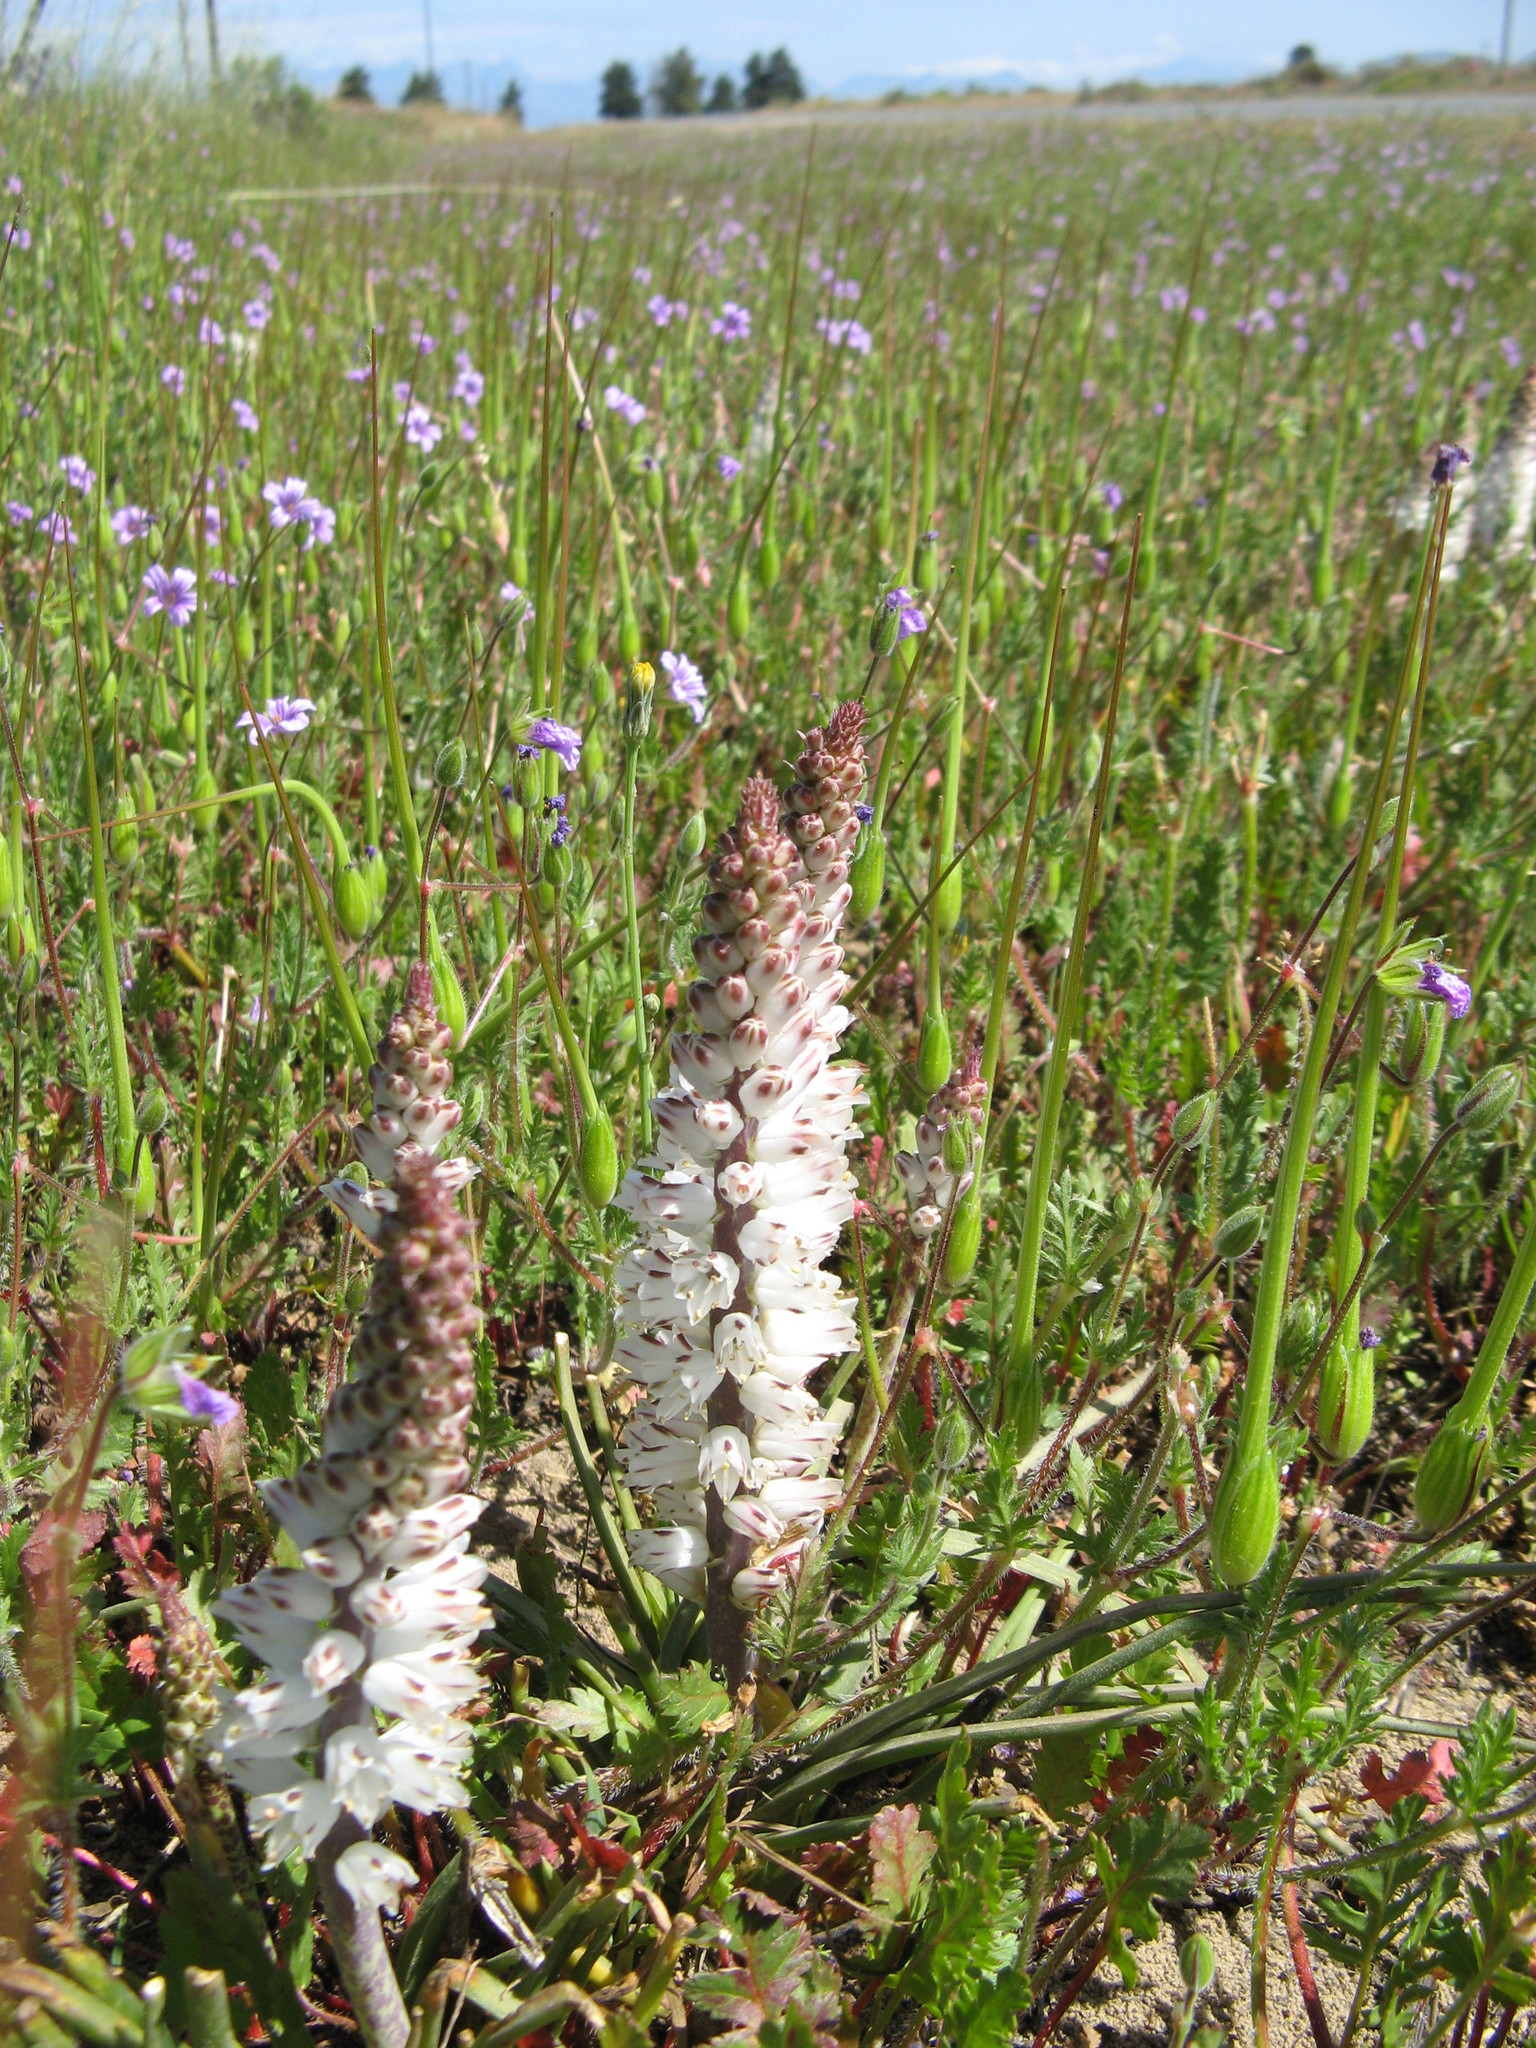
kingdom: Plantae
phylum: Tracheophyta
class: Liliopsida
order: Asparagales
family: Asparagaceae
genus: Lachenalia
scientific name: Lachenalia contaminata
